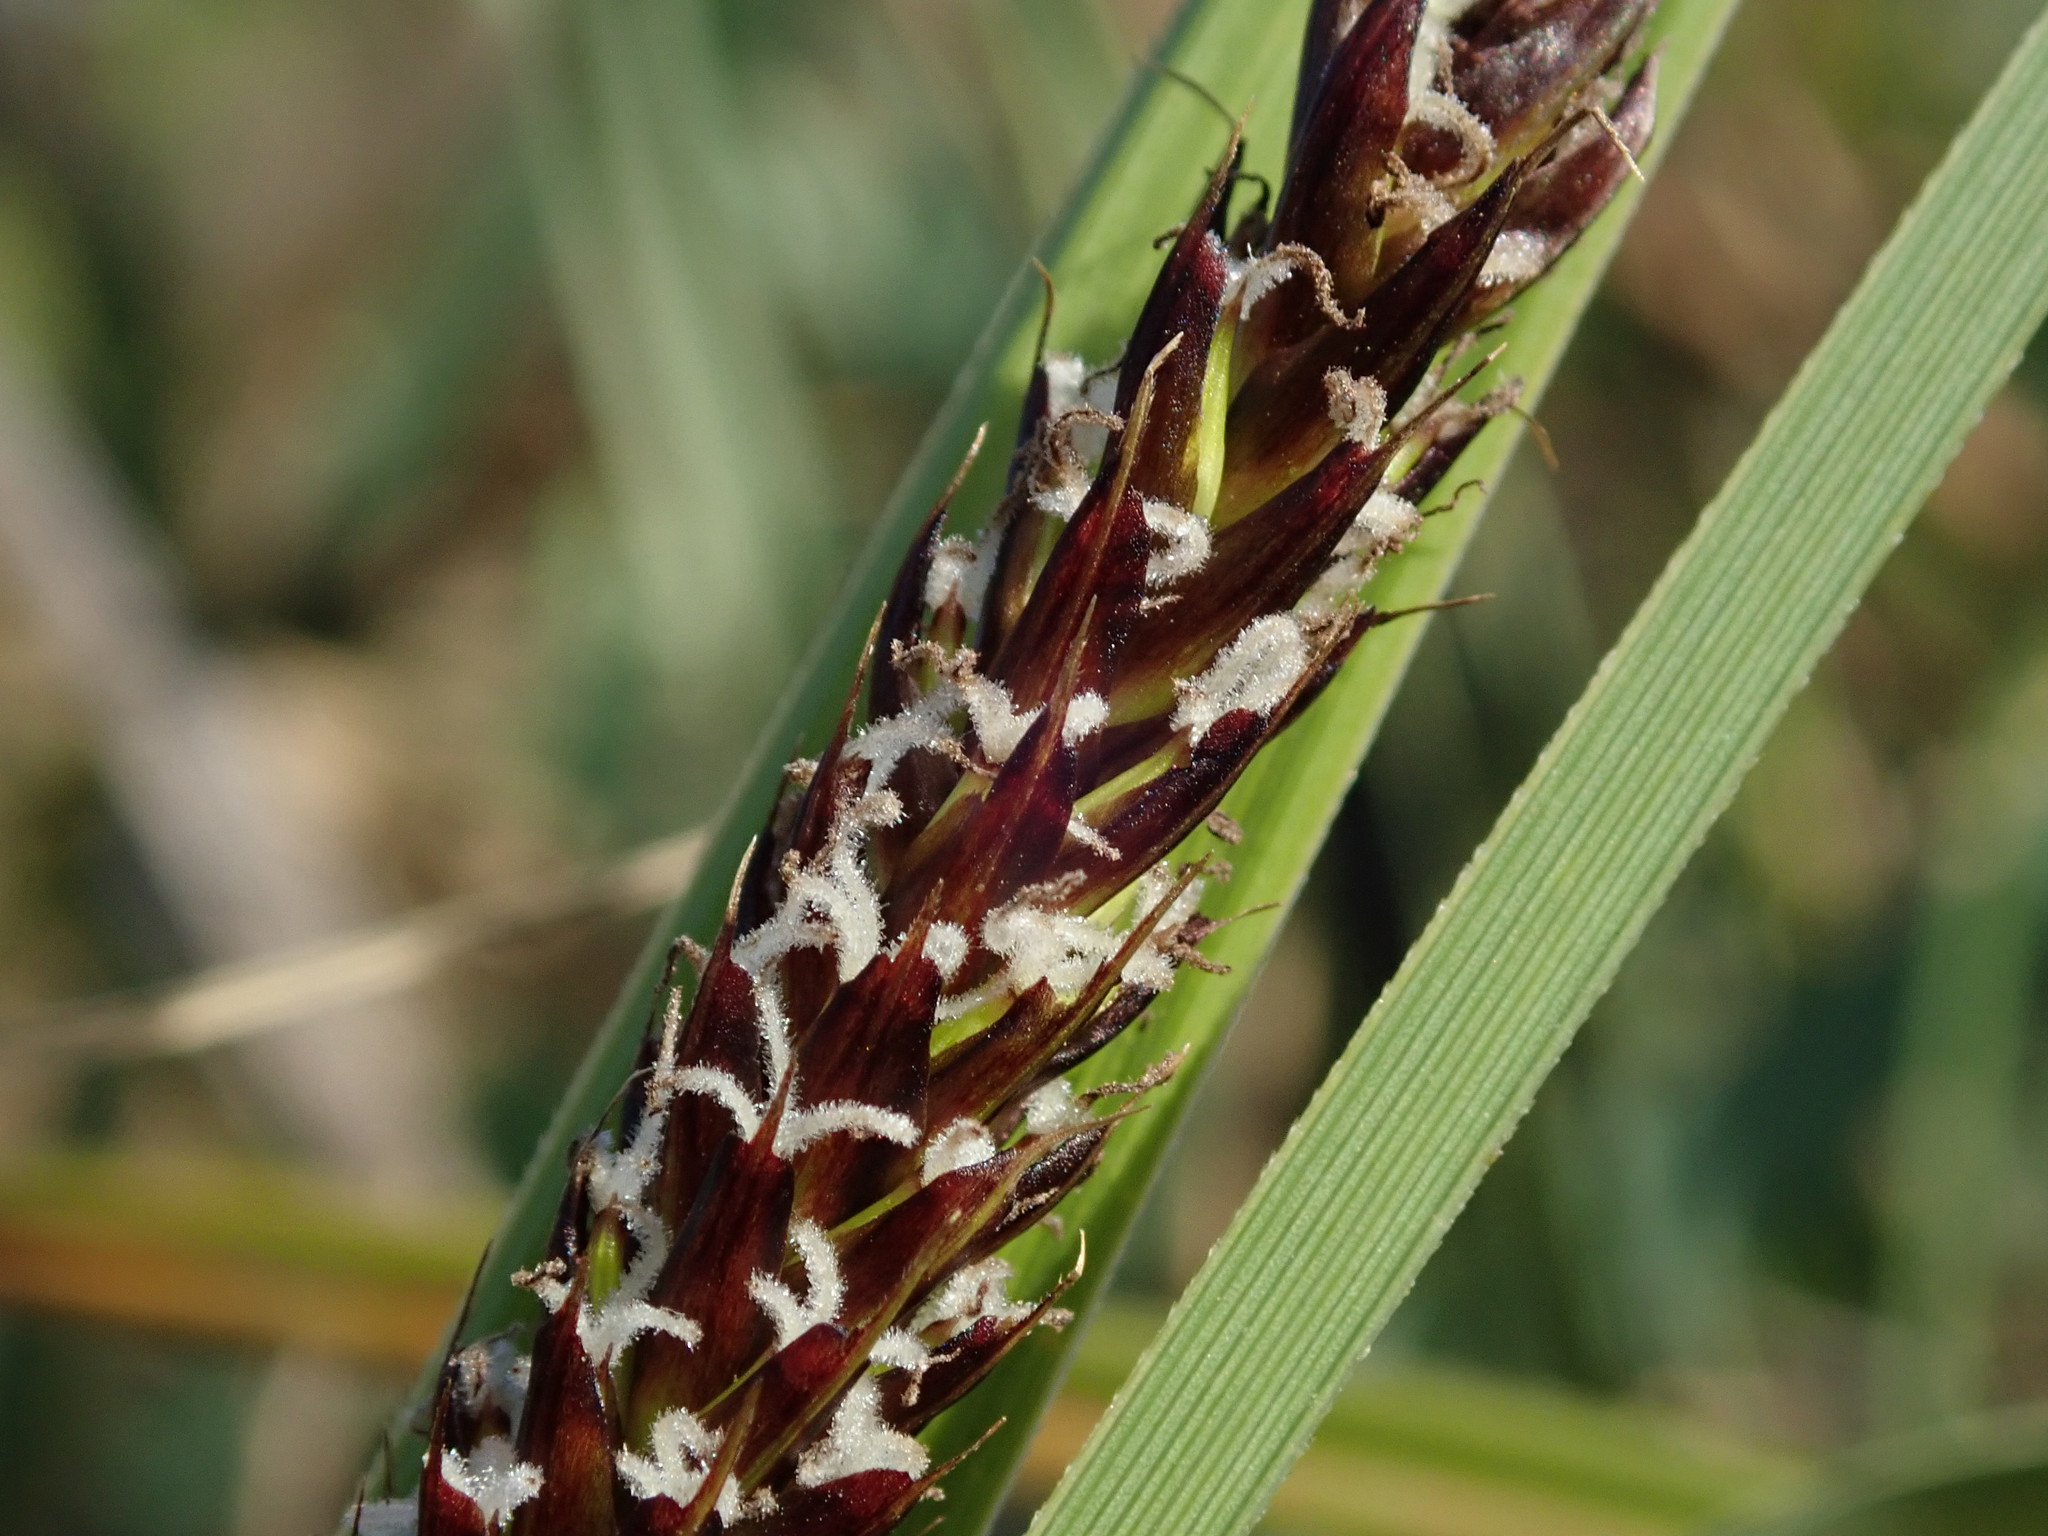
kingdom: Plantae
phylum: Tracheophyta
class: Liliopsida
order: Poales
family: Cyperaceae
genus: Carex
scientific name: Carex riparia
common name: Greater pond-sedge
